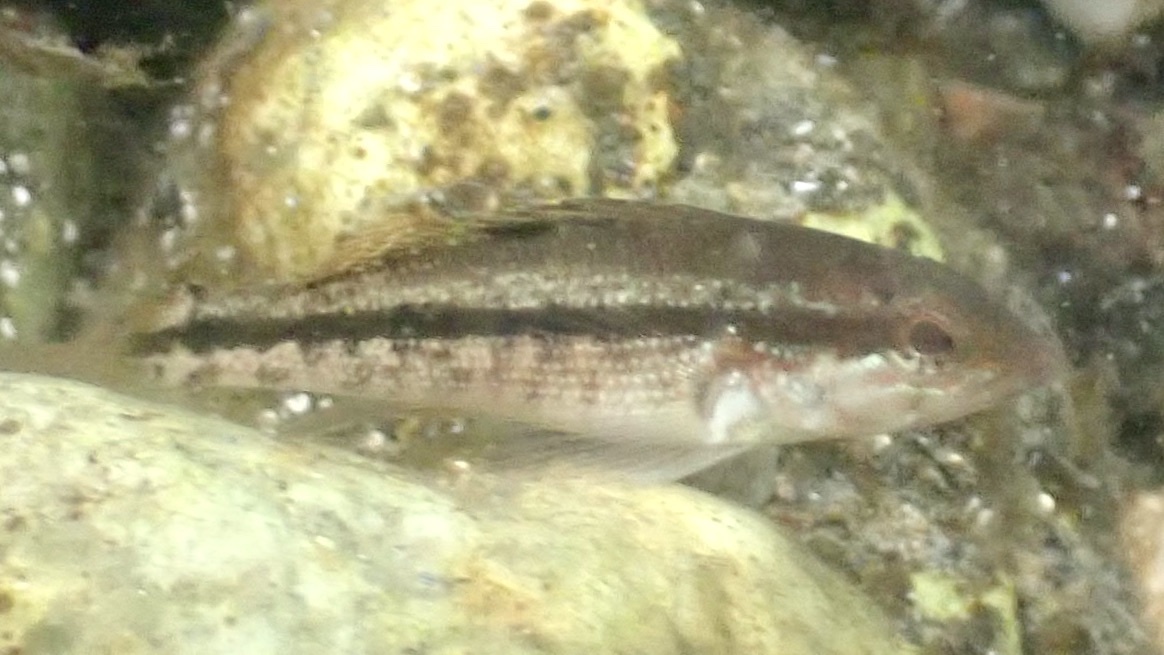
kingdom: Animalia
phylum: Chordata
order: Perciformes
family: Serranidae
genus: Centropristis
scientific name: Centropristis striata
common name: Black sea bass
